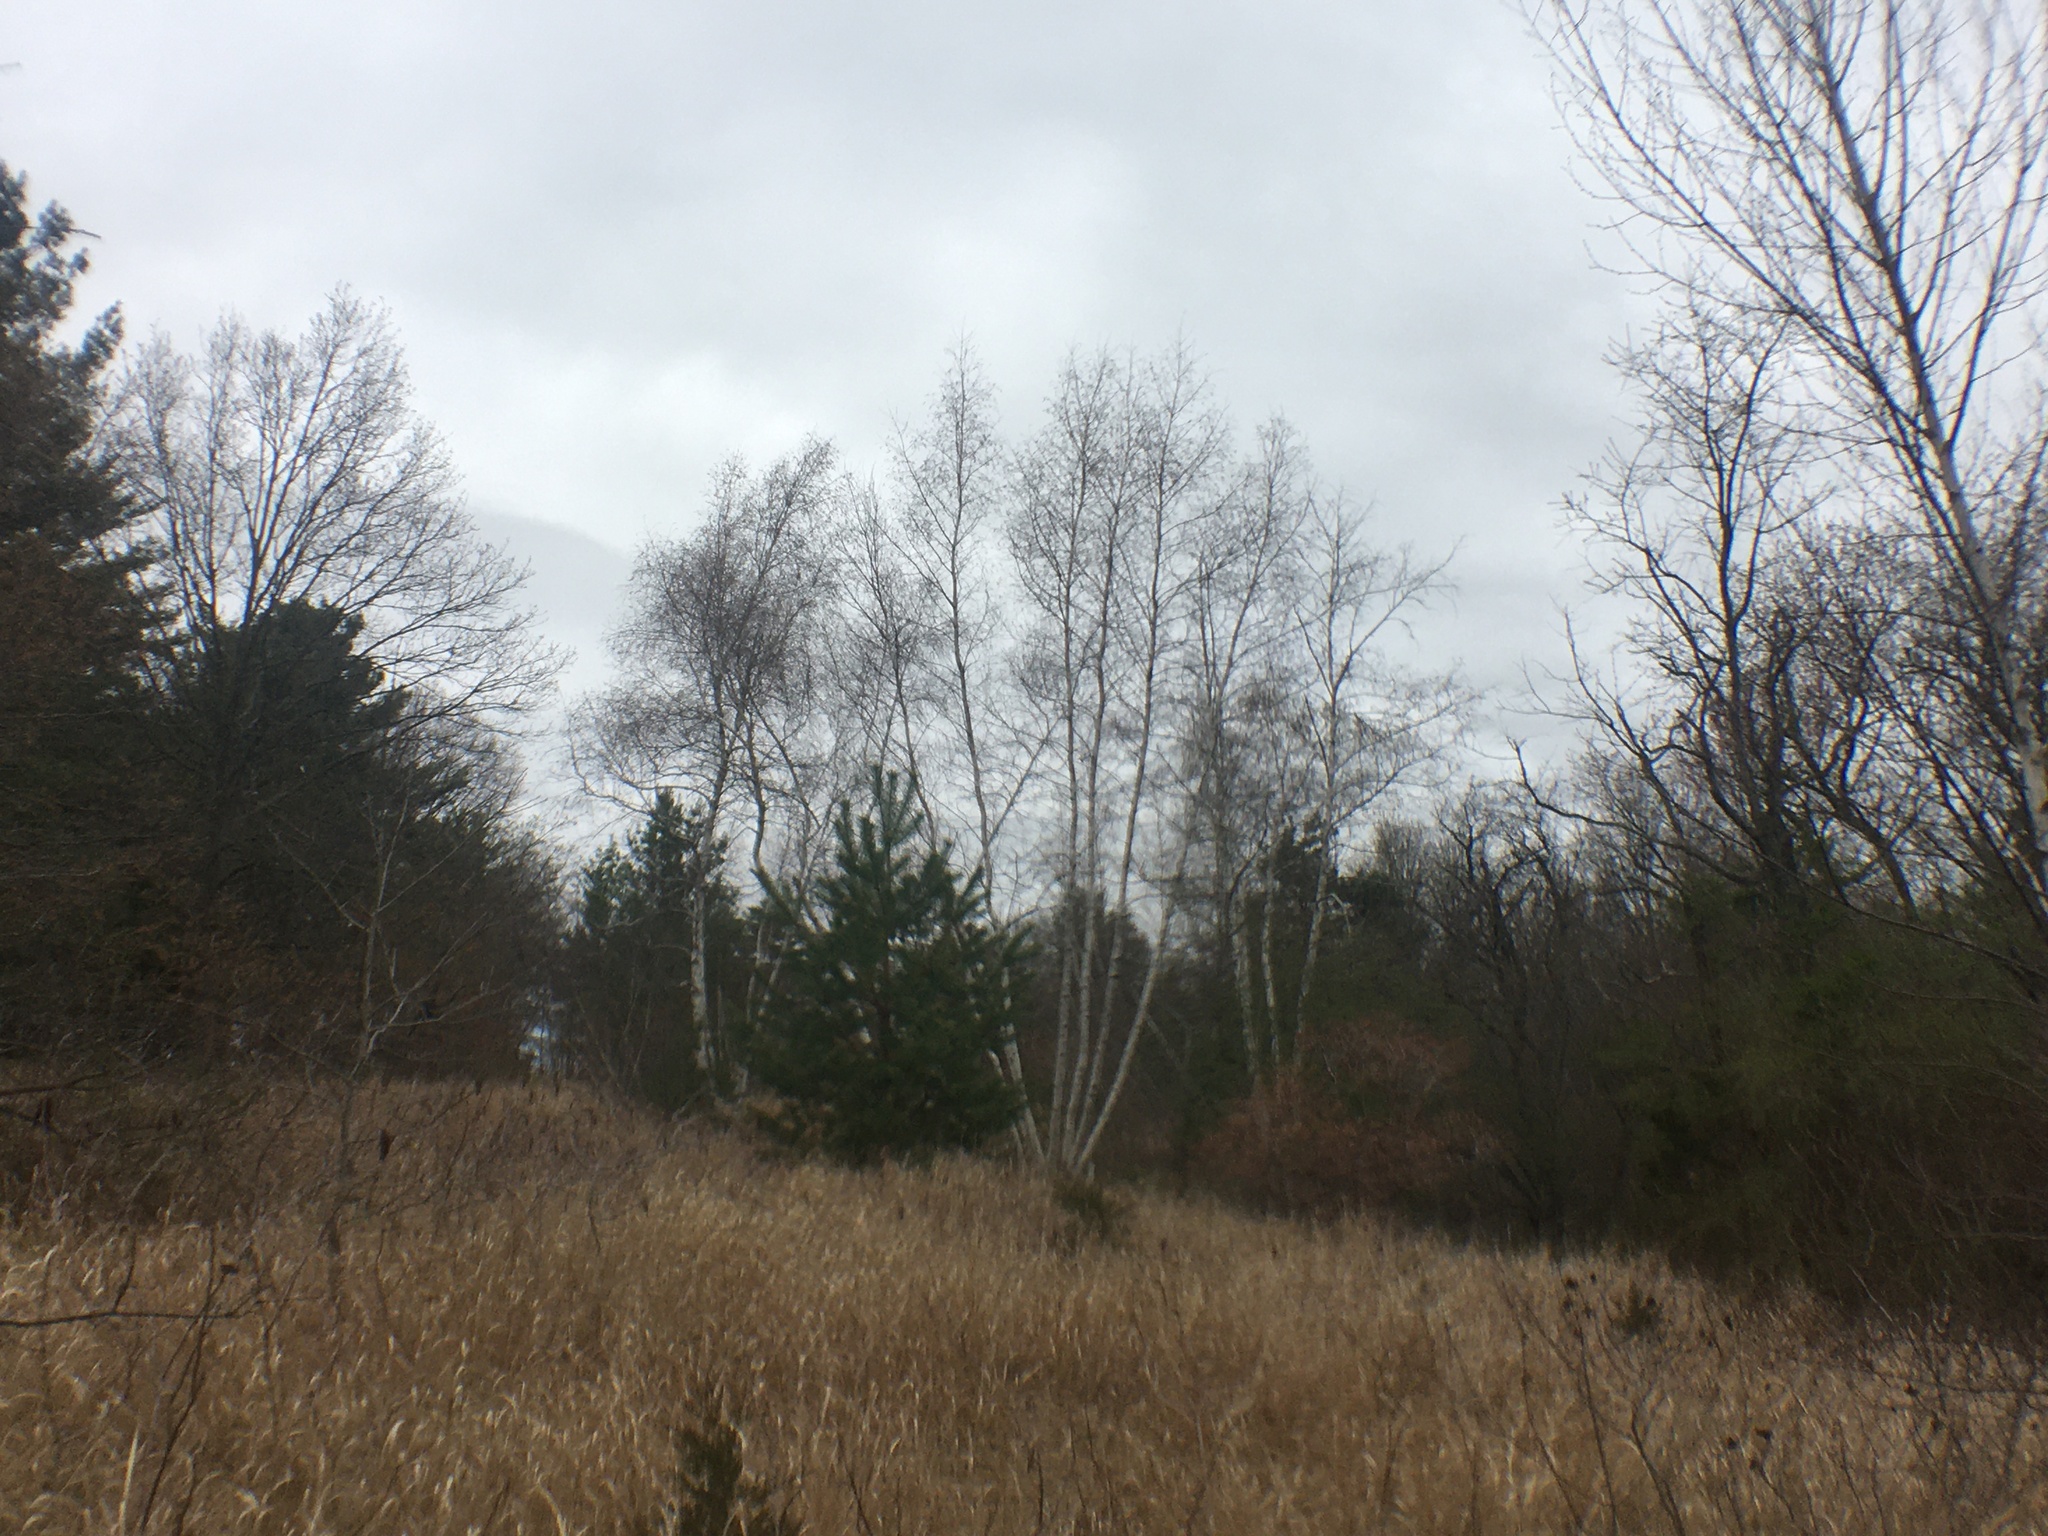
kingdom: Plantae
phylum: Tracheophyta
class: Magnoliopsida
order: Fagales
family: Betulaceae
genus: Betula
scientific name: Betula populifolia
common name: Fire birch
